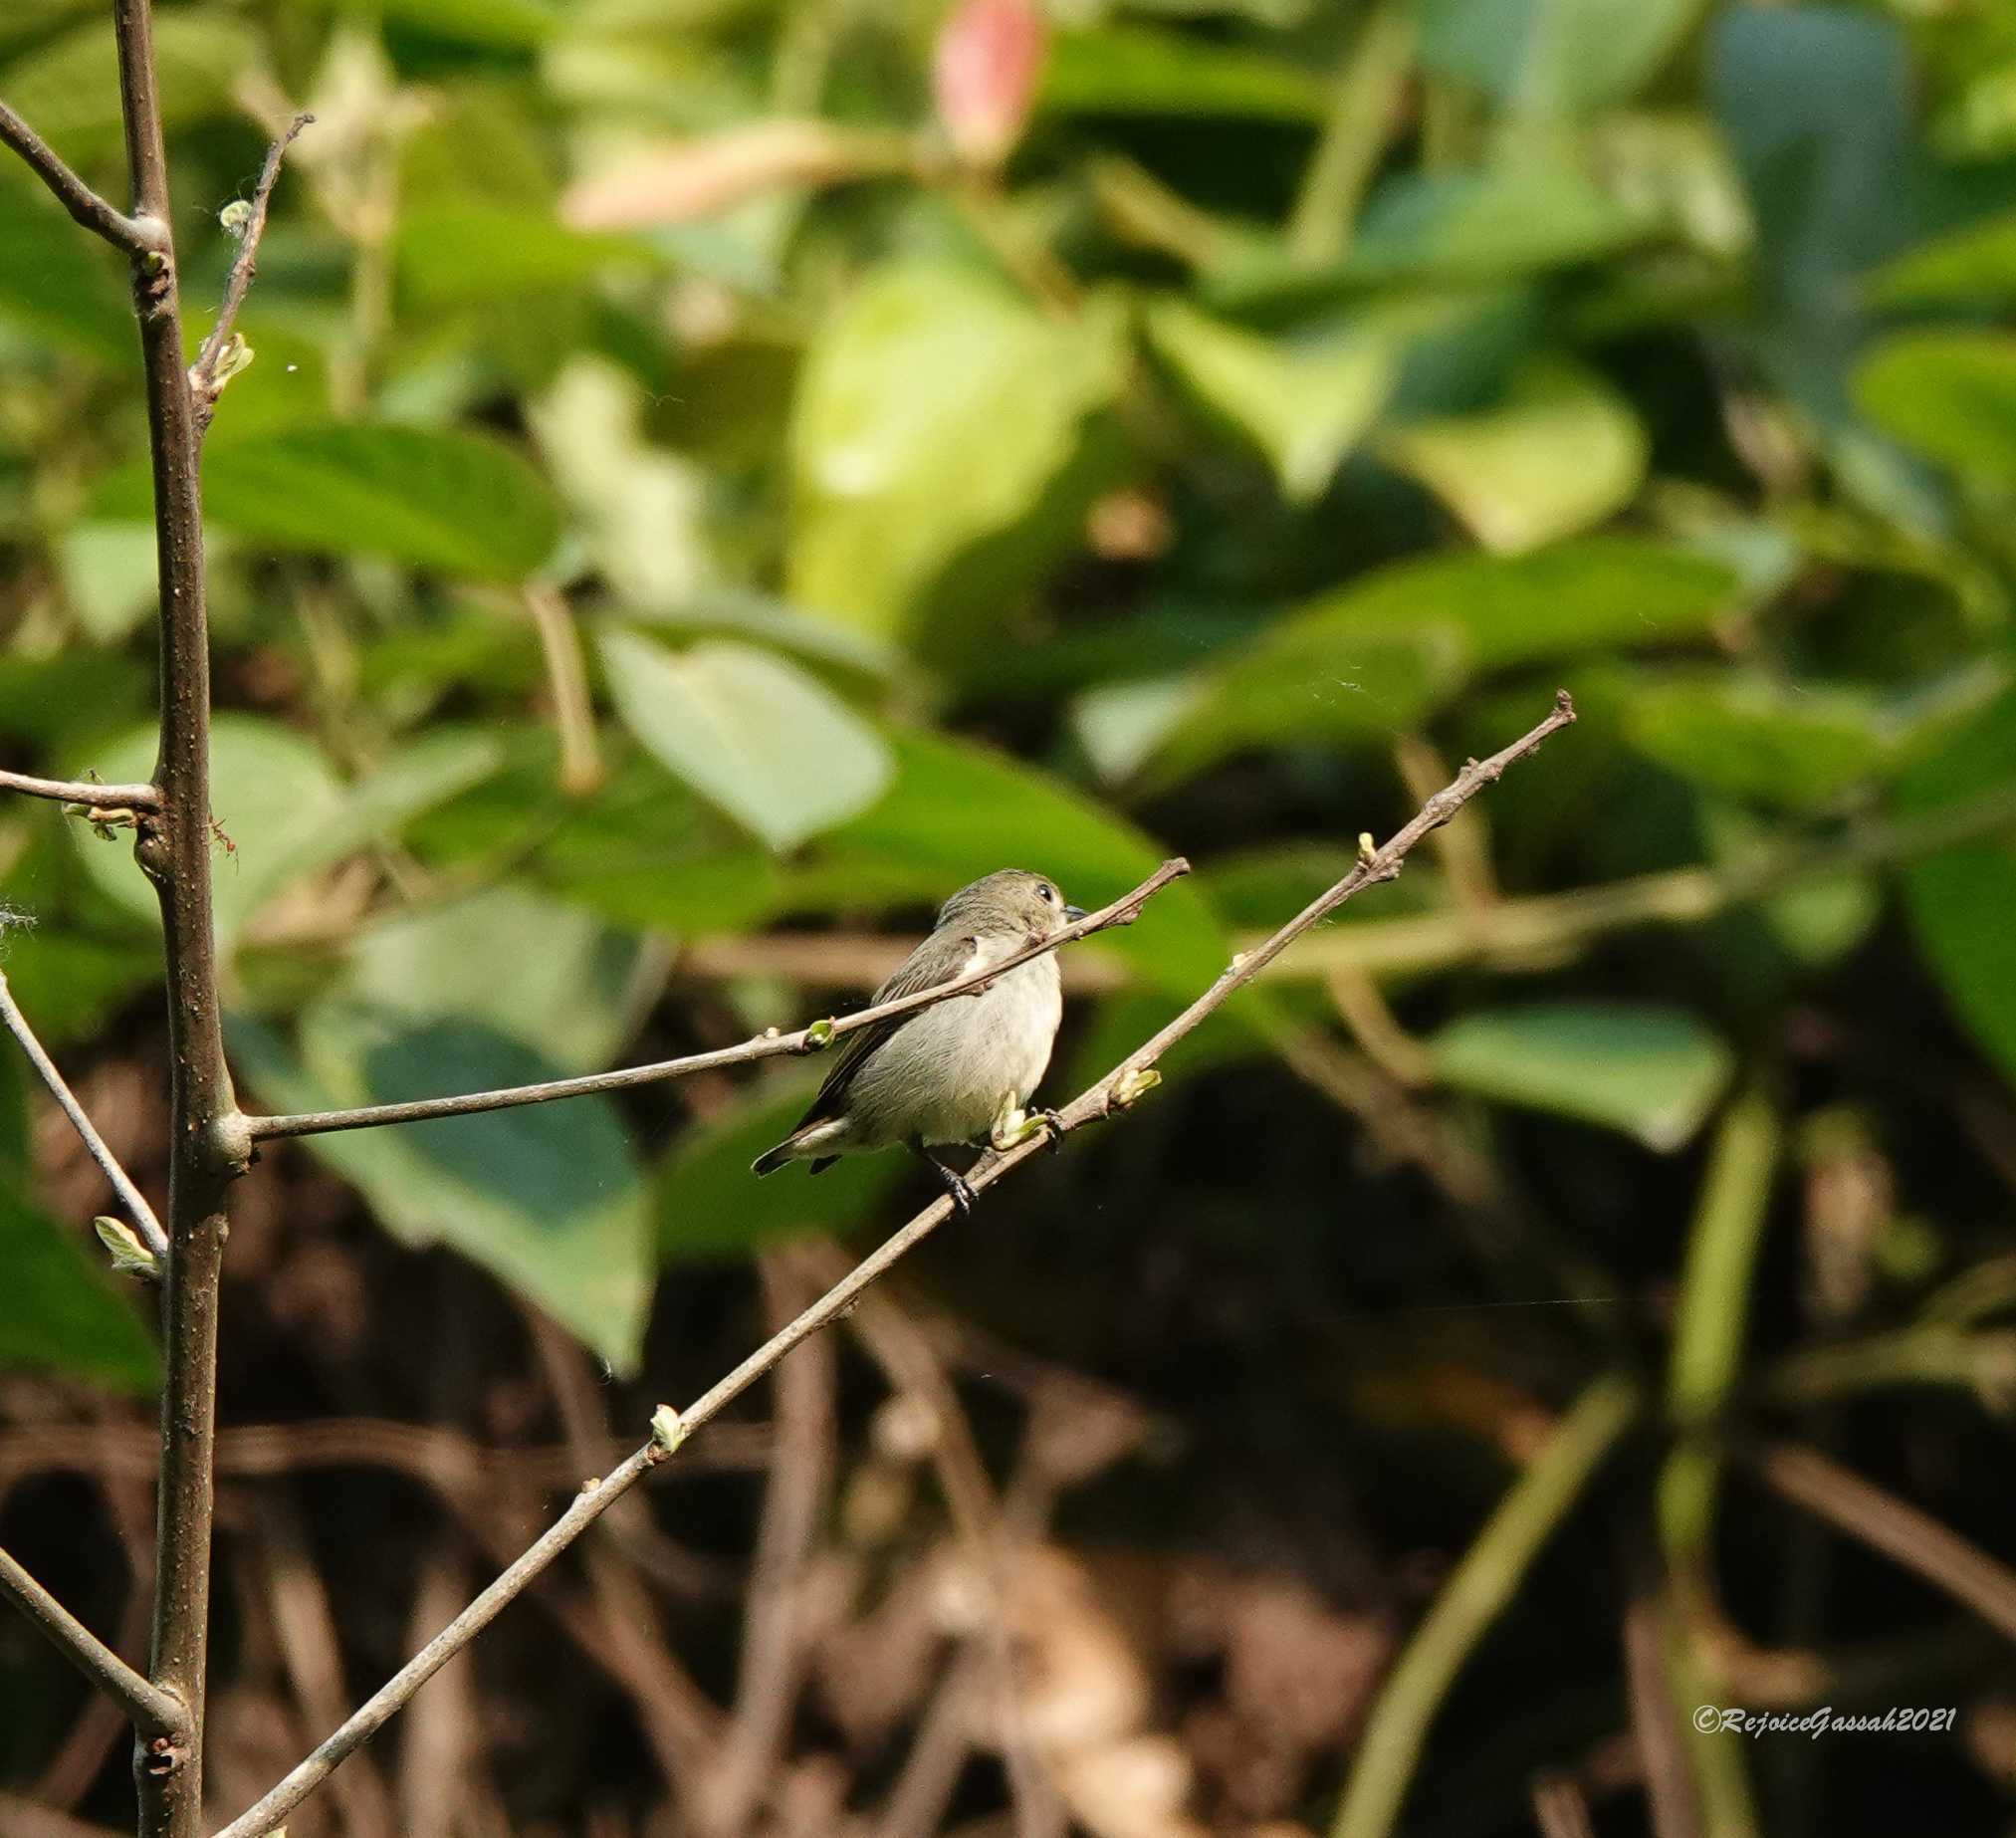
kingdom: Animalia
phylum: Chordata
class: Aves
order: Passeriformes
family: Dicaeidae
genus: Dicaeum
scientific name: Dicaeum minullum
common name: Plain flowerpecker
